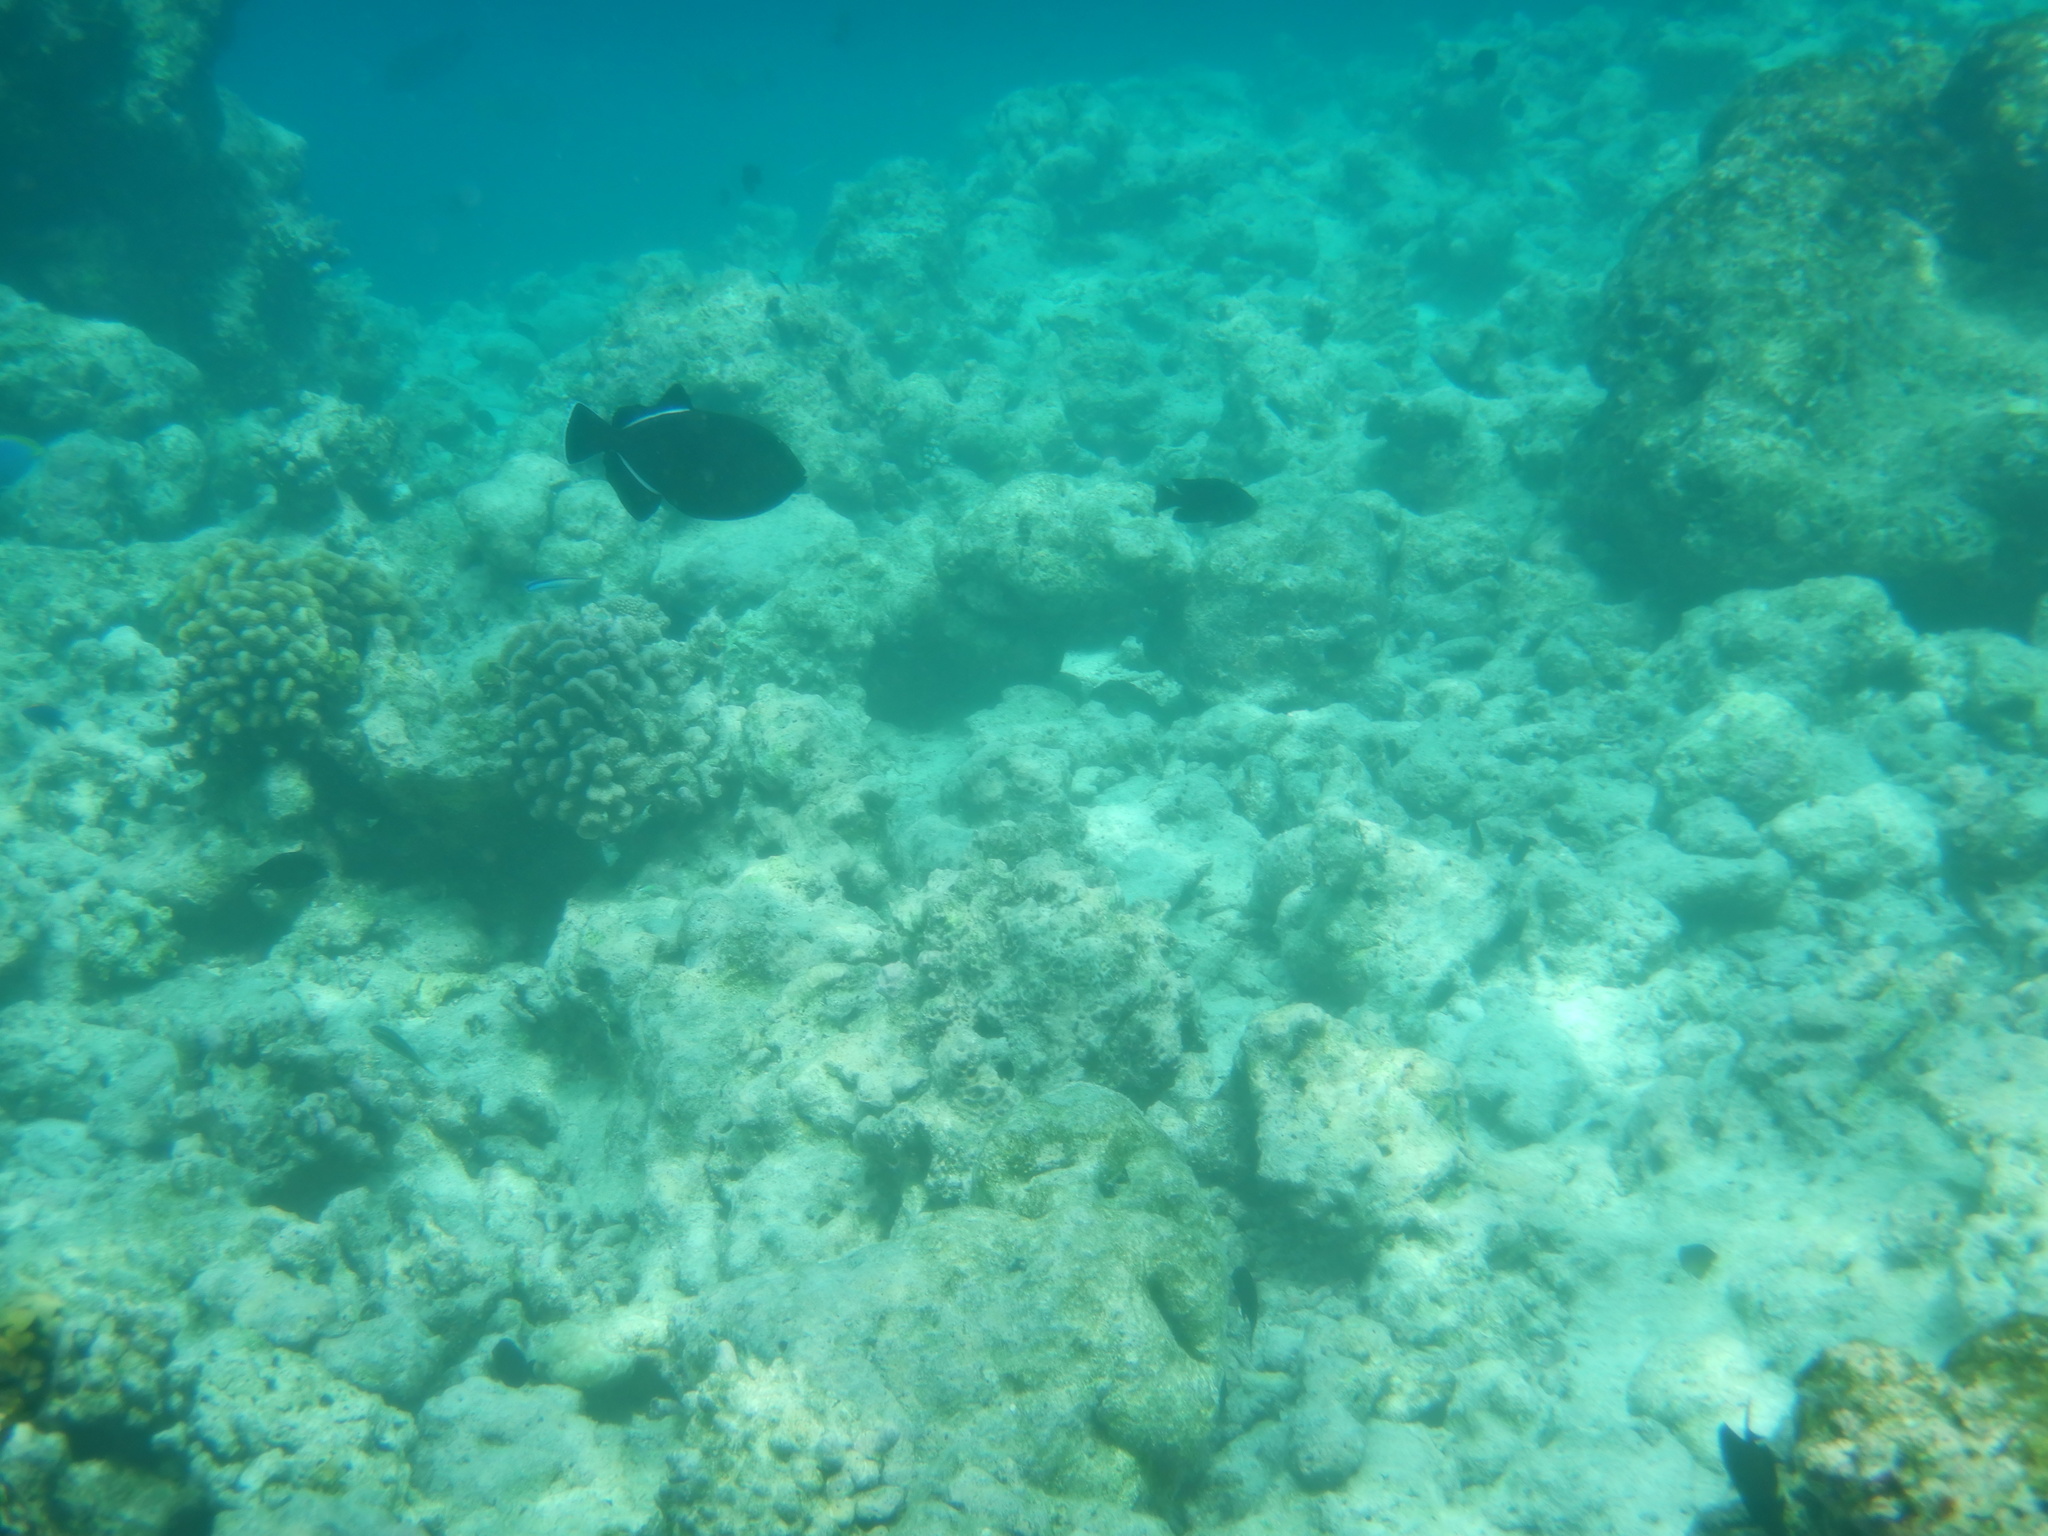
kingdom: Animalia
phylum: Chordata
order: Tetraodontiformes
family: Balistidae
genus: Melichthys
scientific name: Melichthys indicus
